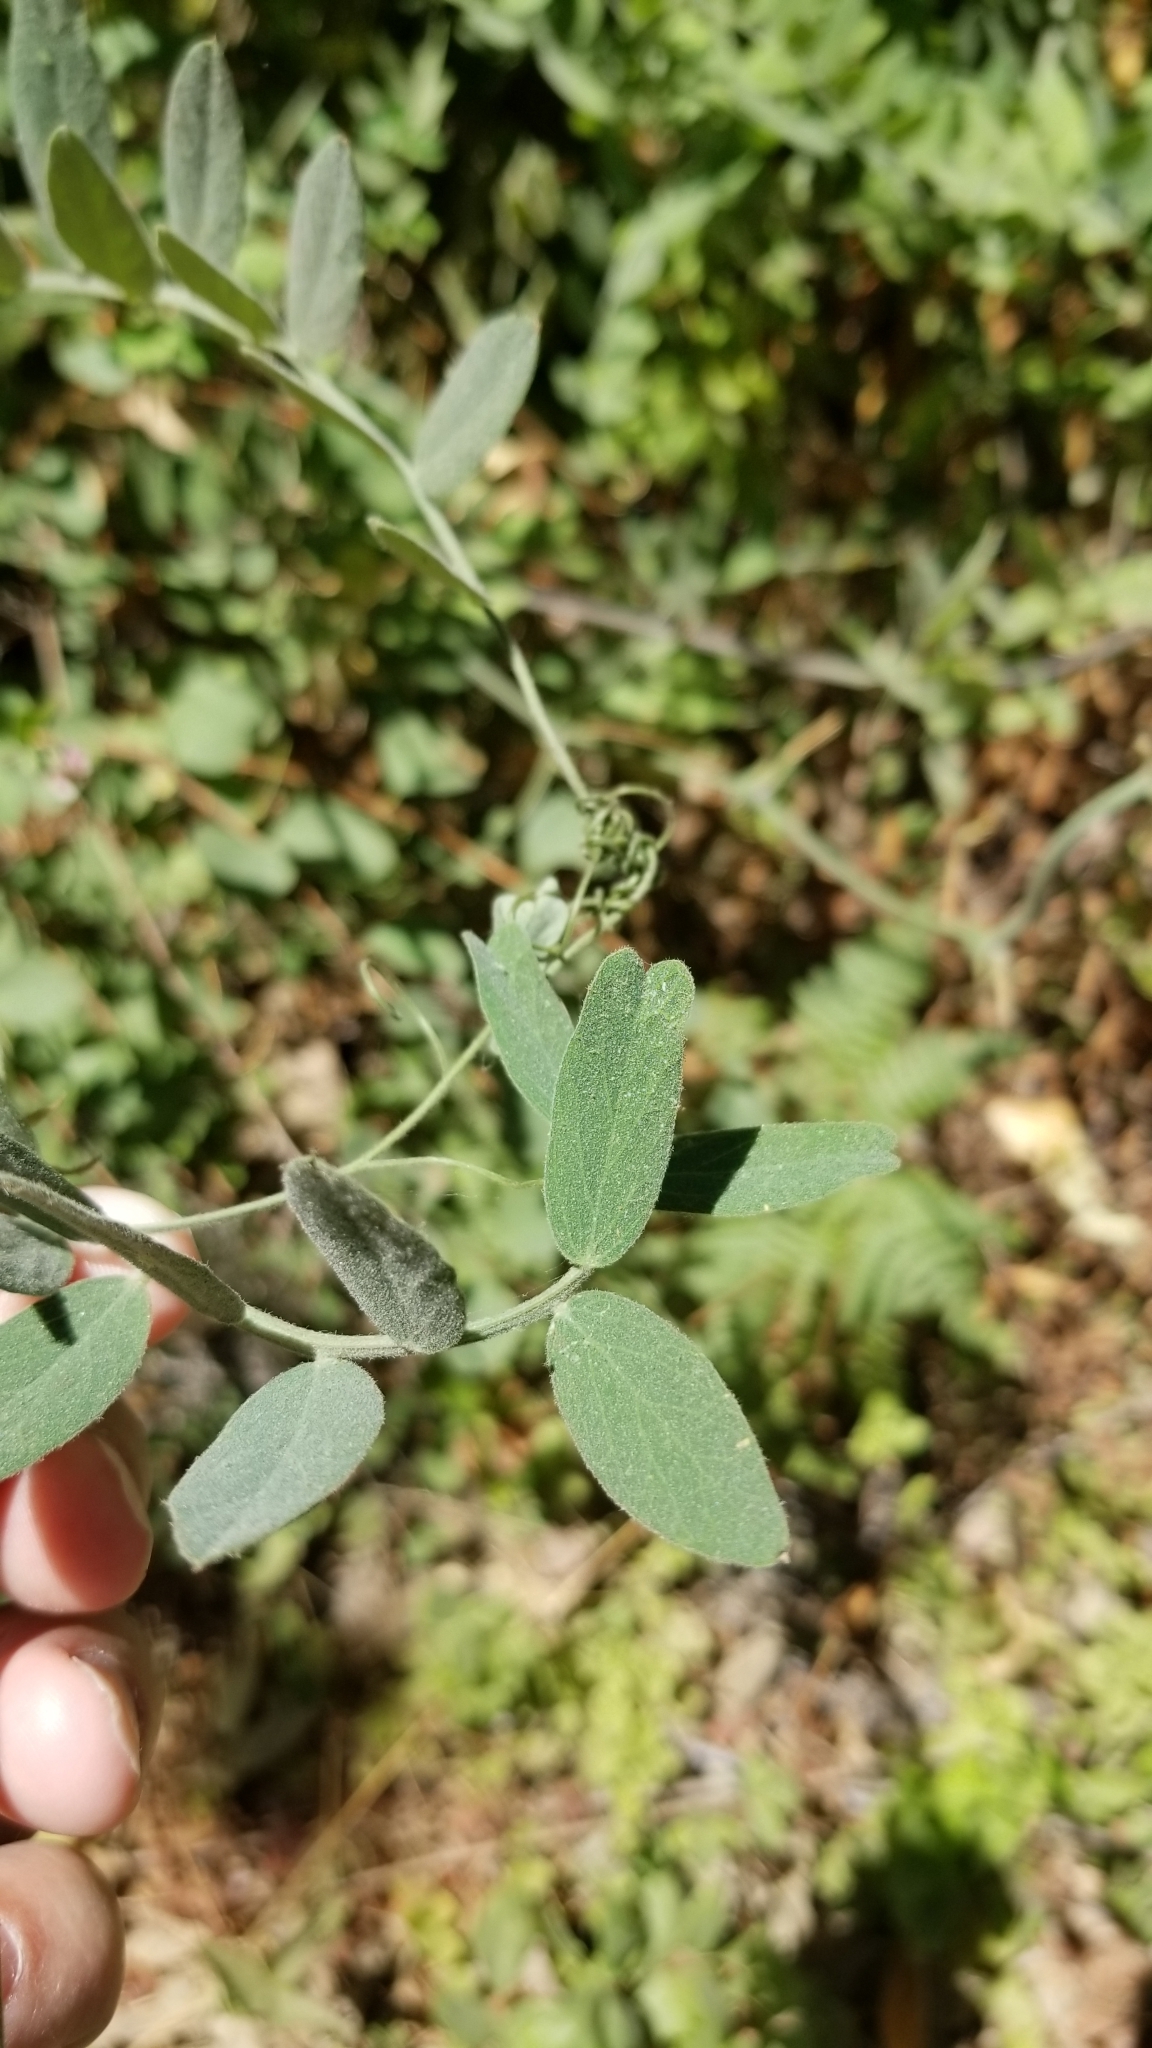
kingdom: Plantae
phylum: Tracheophyta
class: Magnoliopsida
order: Fabales
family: Fabaceae
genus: Lathyrus
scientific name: Lathyrus vestitus
